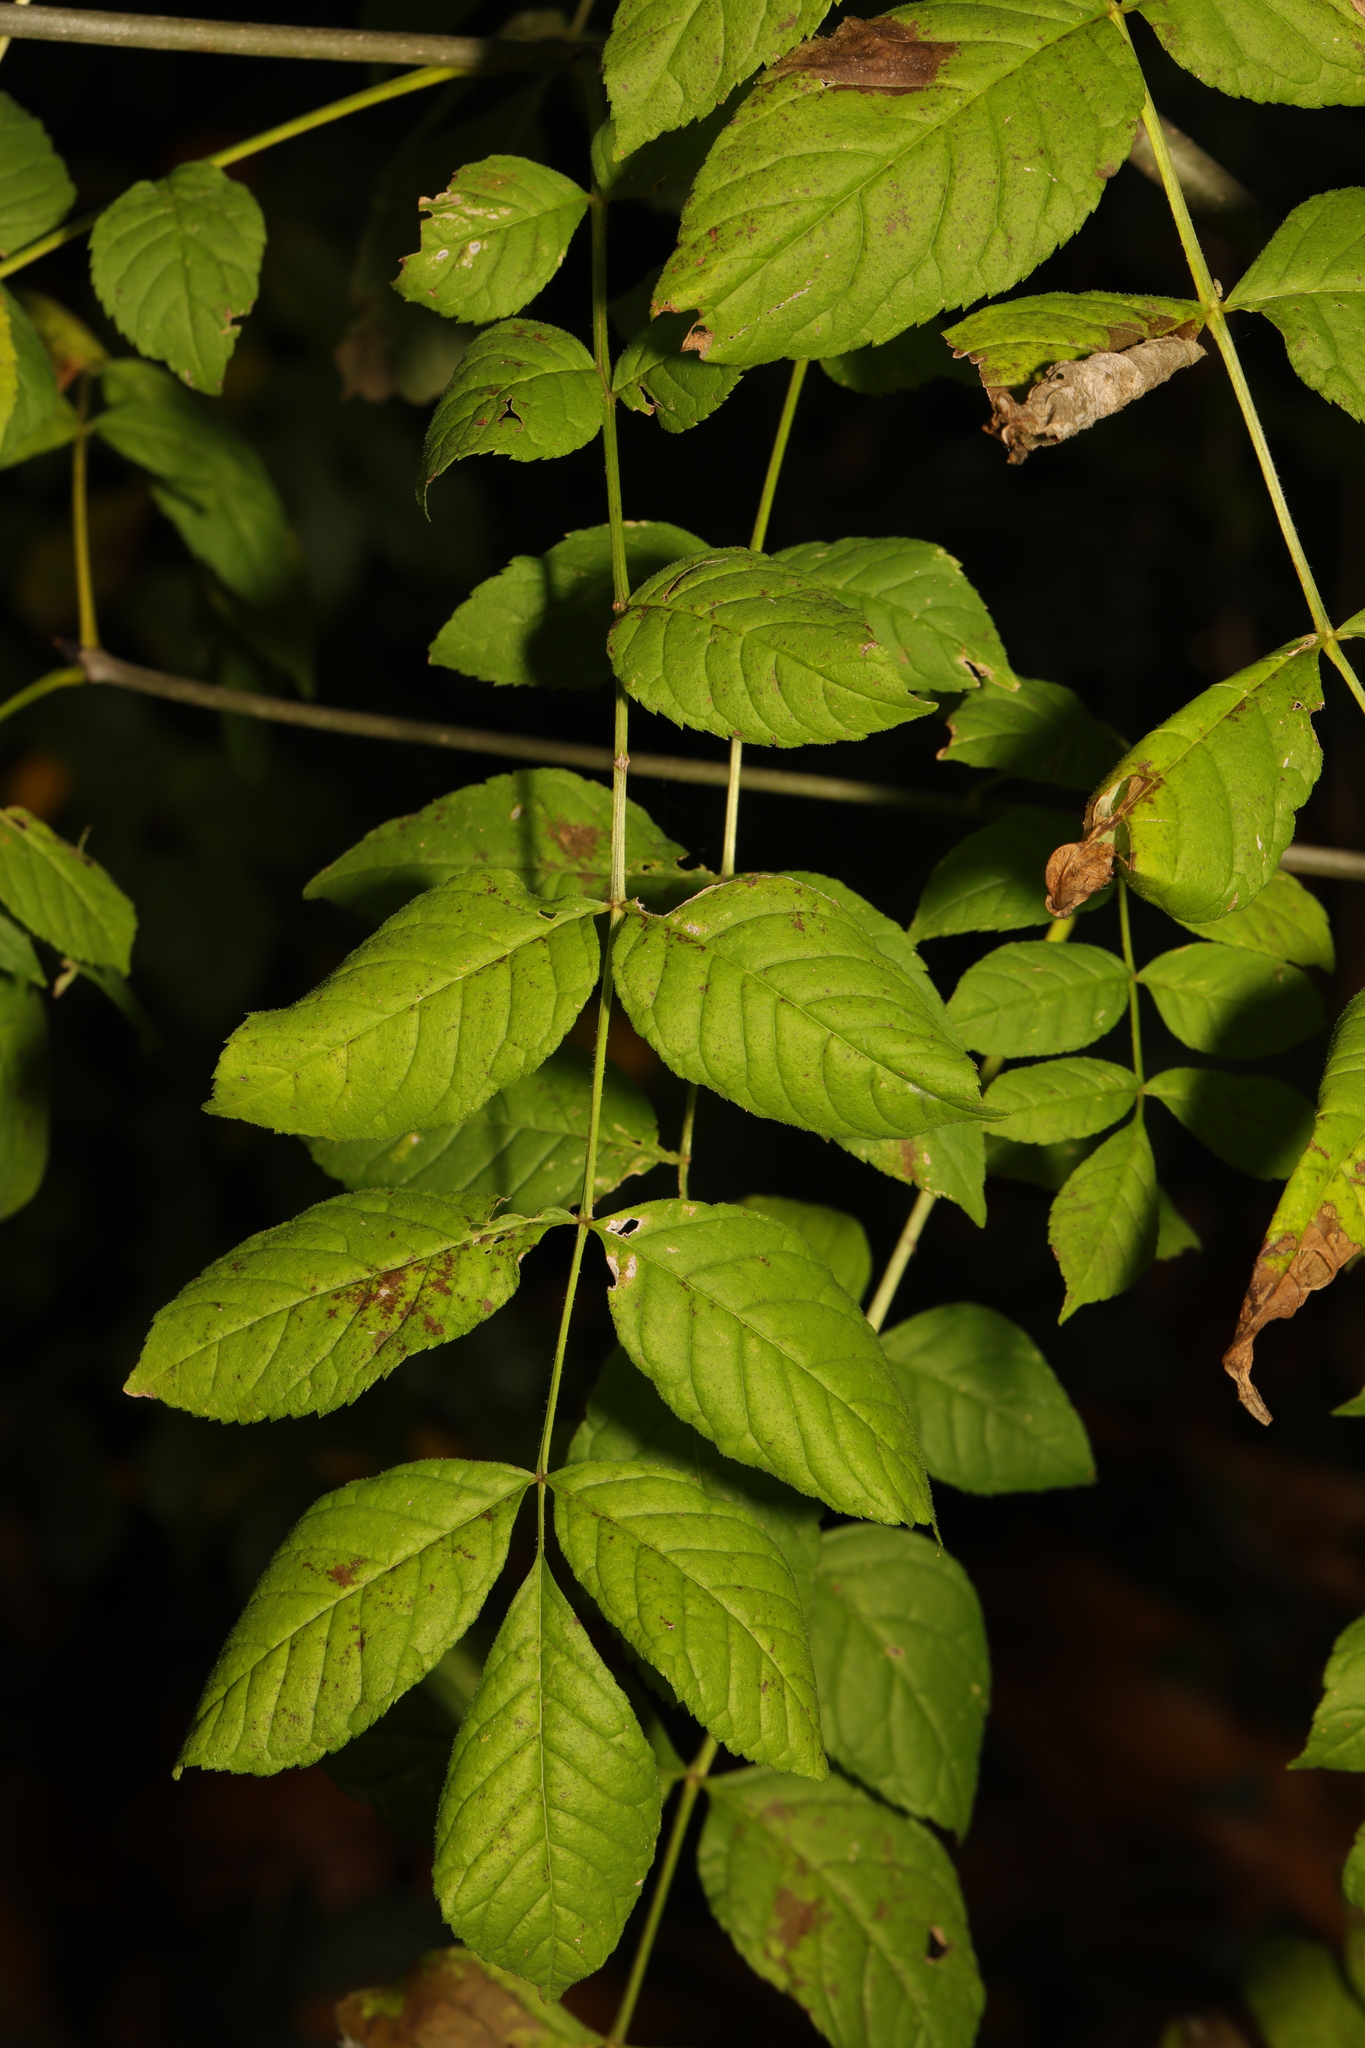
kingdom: Plantae
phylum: Tracheophyta
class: Magnoliopsida
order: Lamiales
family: Oleaceae
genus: Fraxinus
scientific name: Fraxinus excelsior
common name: European ash
